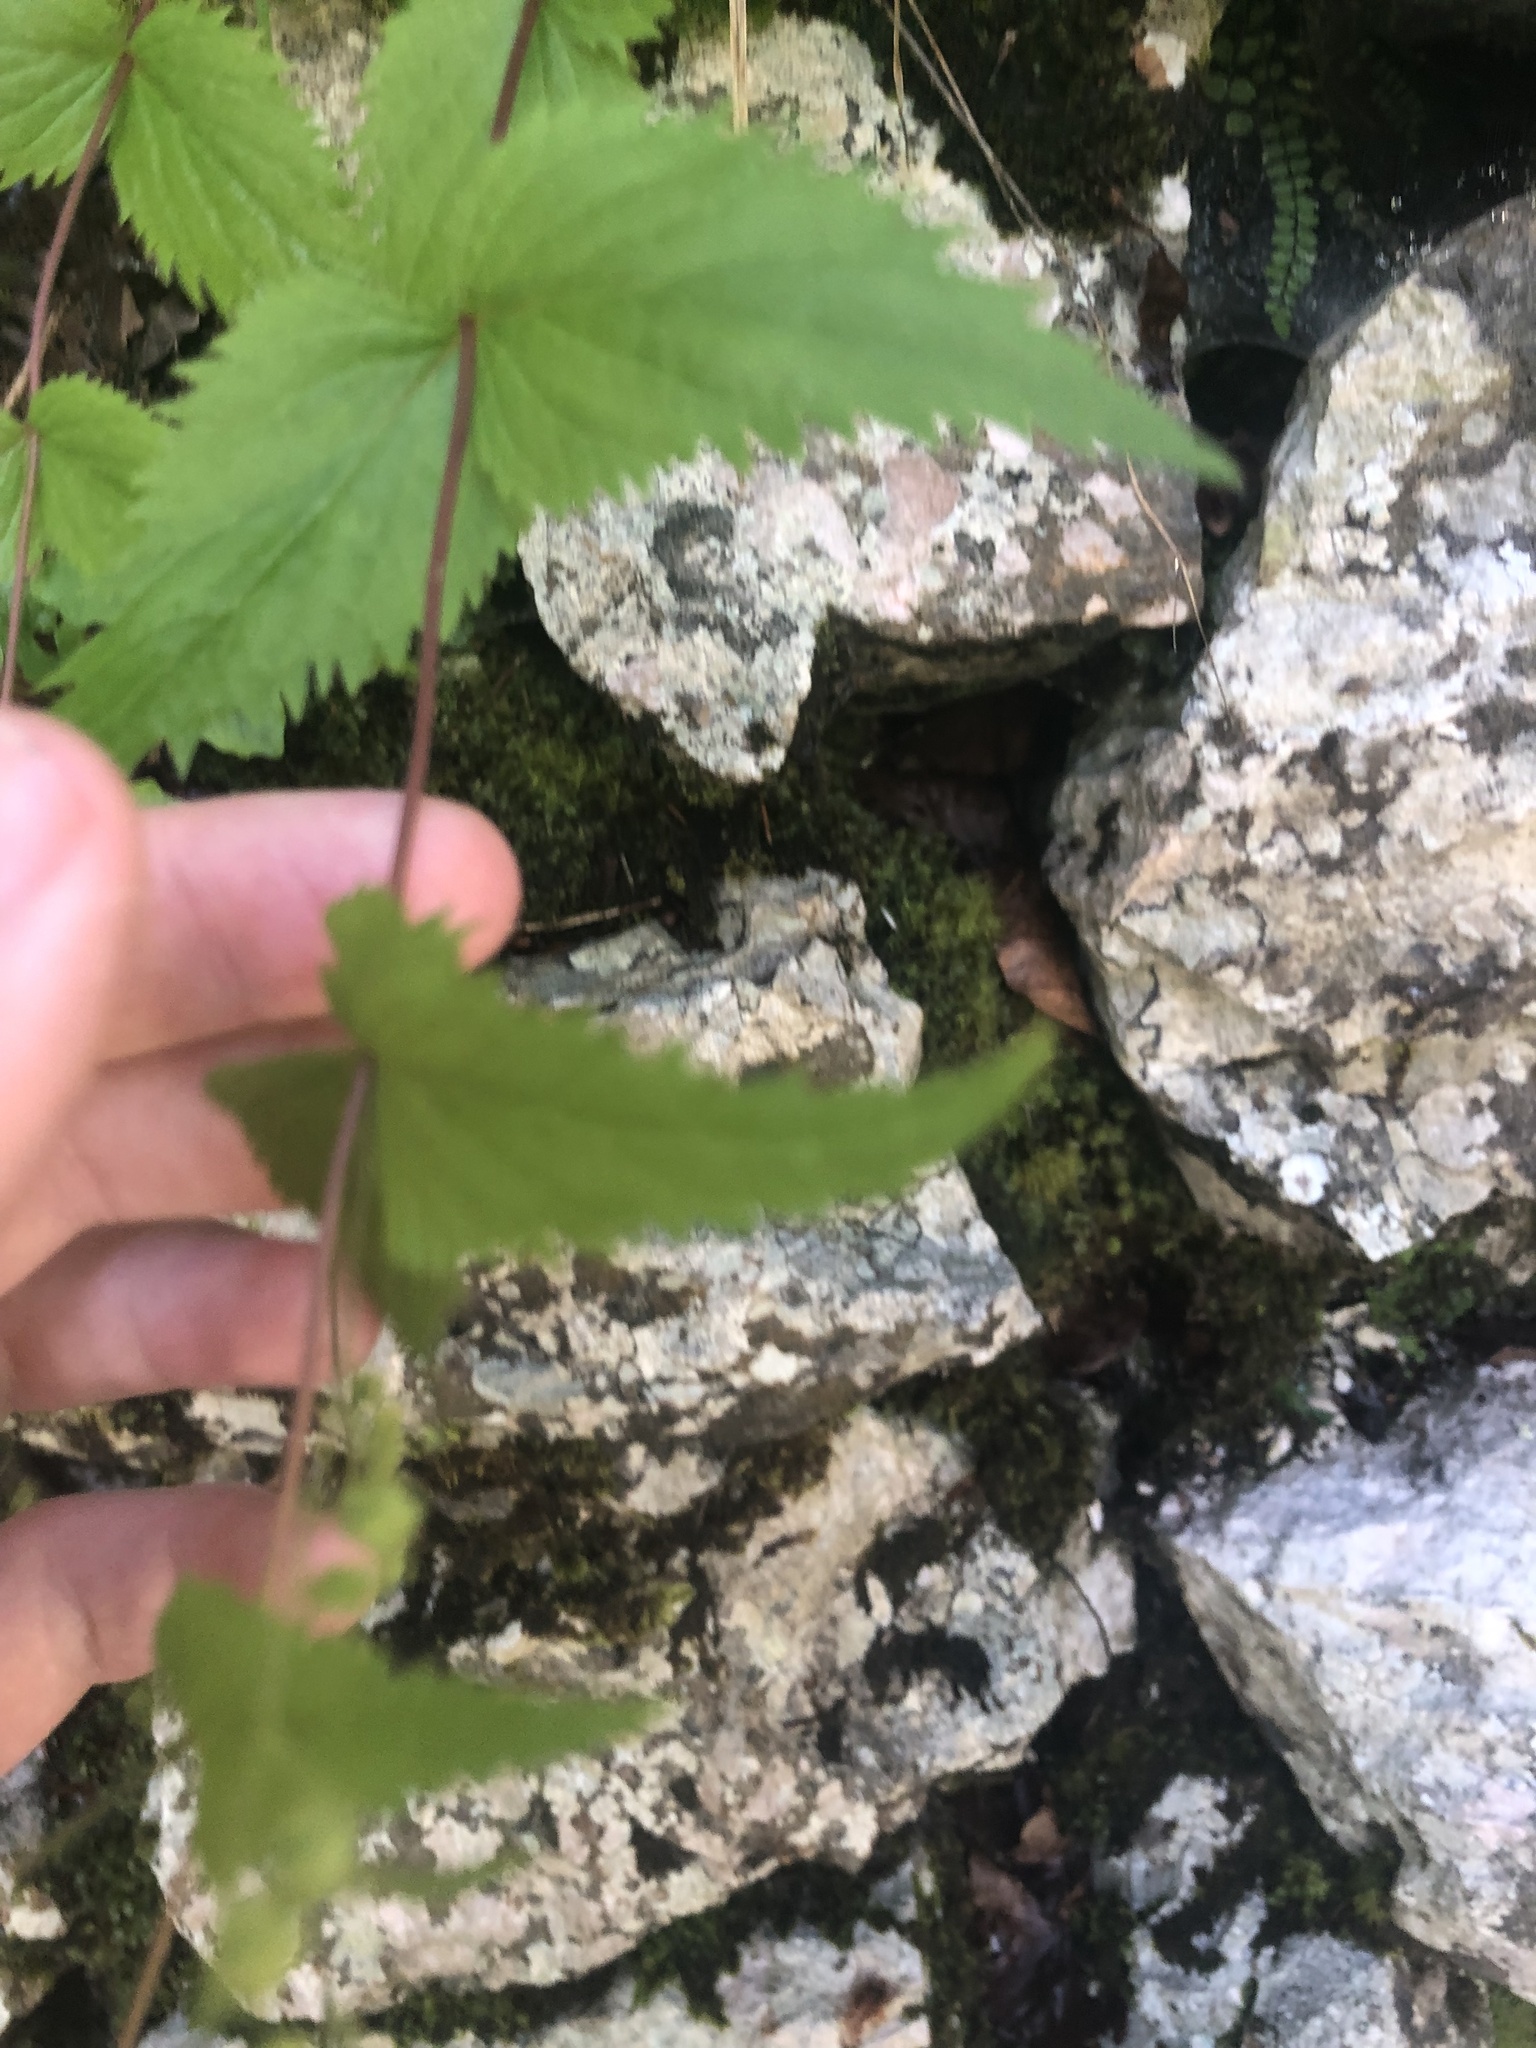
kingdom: Plantae
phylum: Tracheophyta
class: Magnoliopsida
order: Lamiales
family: Plantaginaceae
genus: Veronica
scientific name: Veronica urticifolia
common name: Nettle-leaf speedwell
